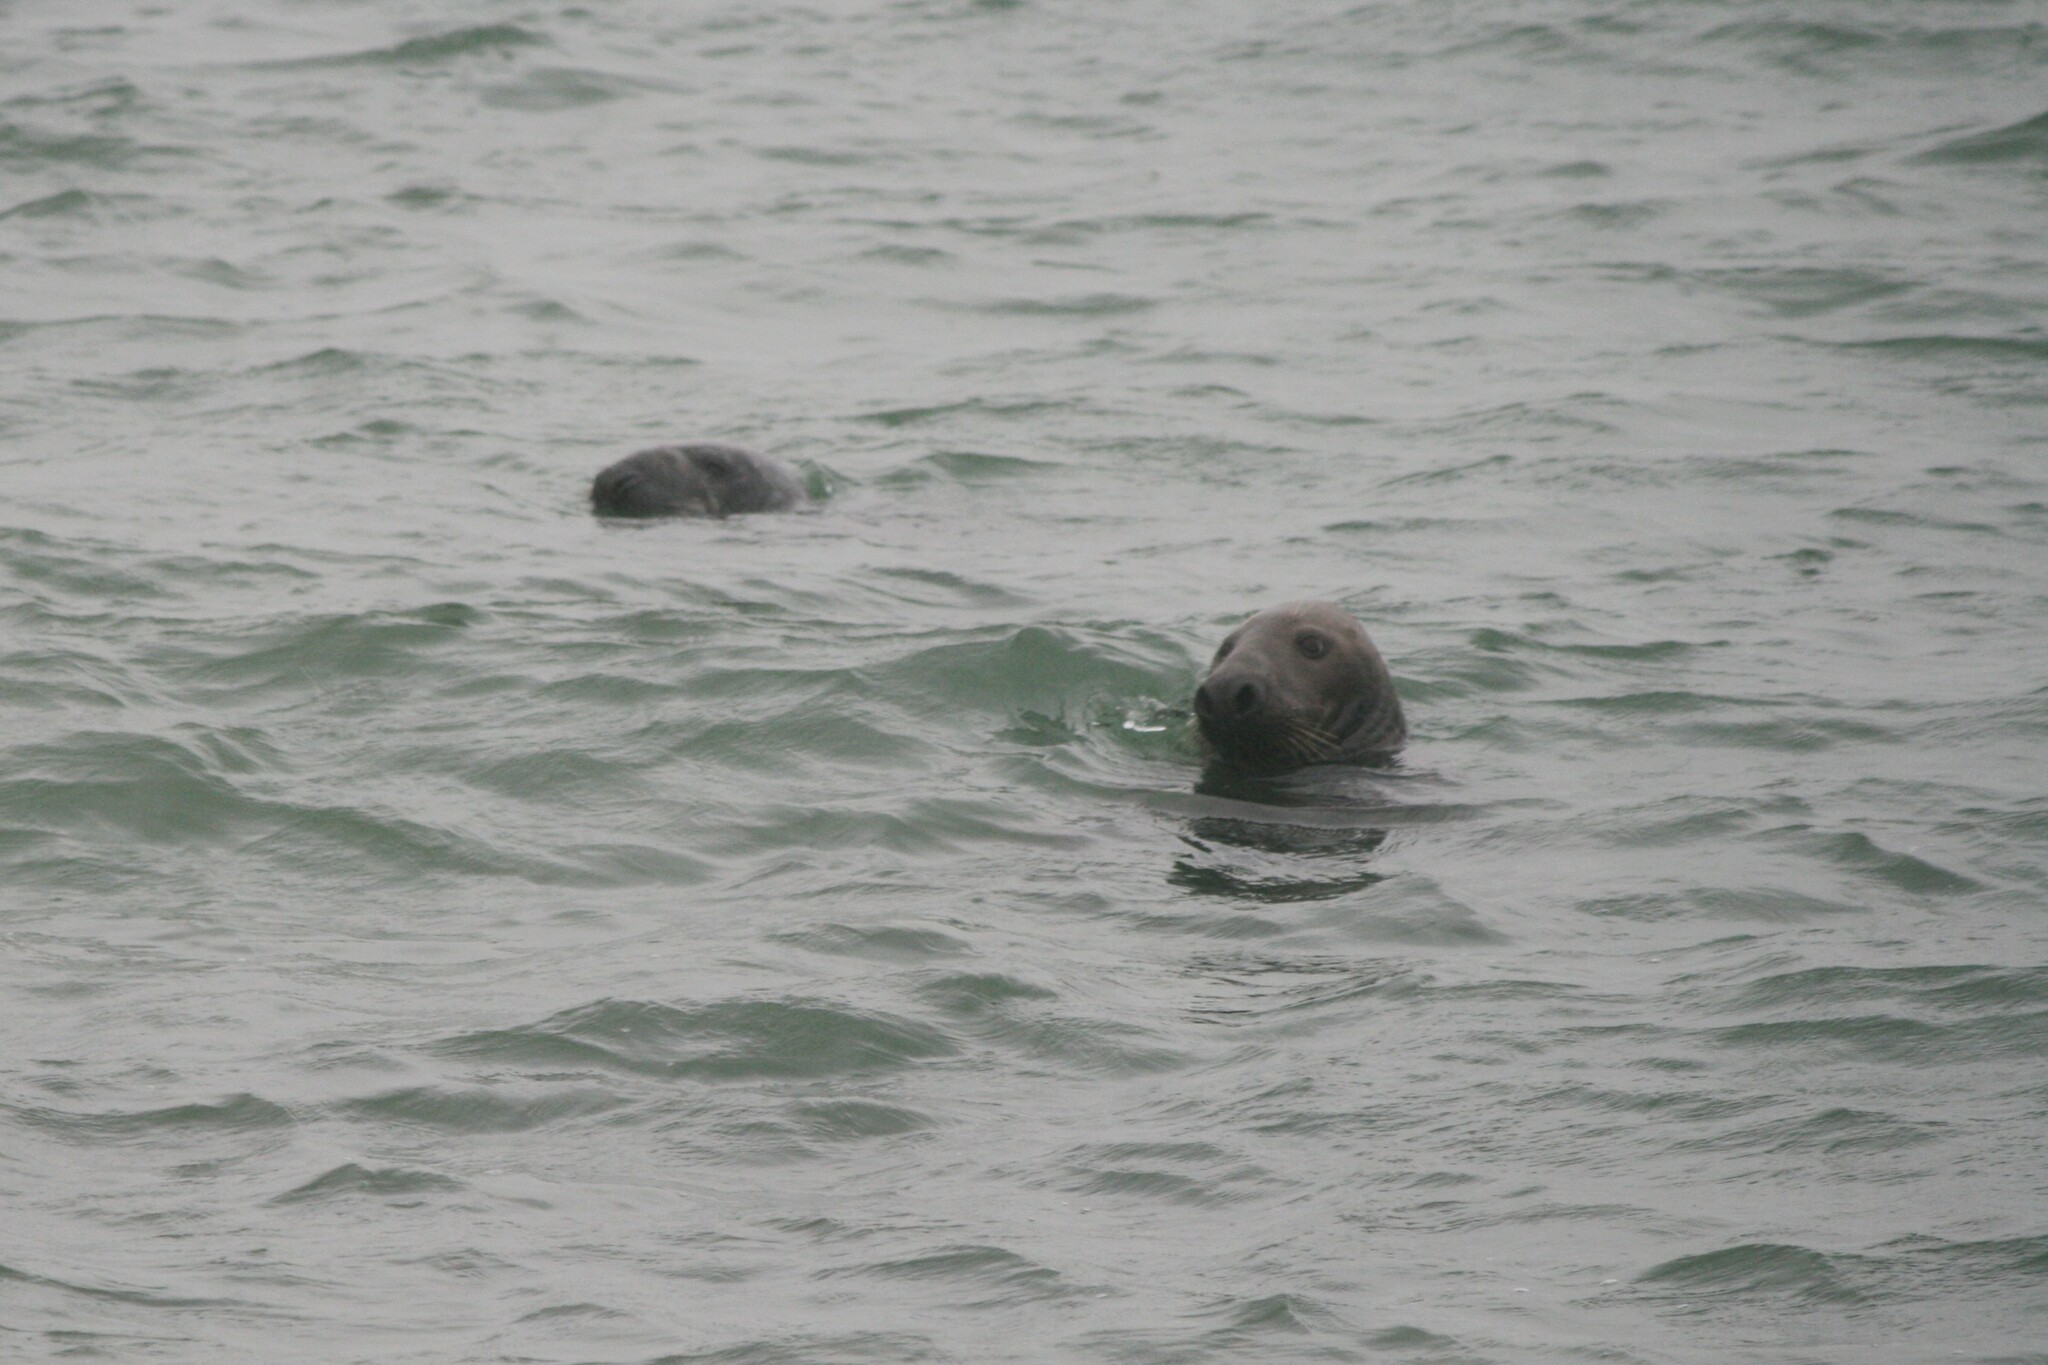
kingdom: Animalia
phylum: Chordata
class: Mammalia
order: Carnivora
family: Phocidae
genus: Halichoerus
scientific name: Halichoerus grypus
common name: Grey seal
